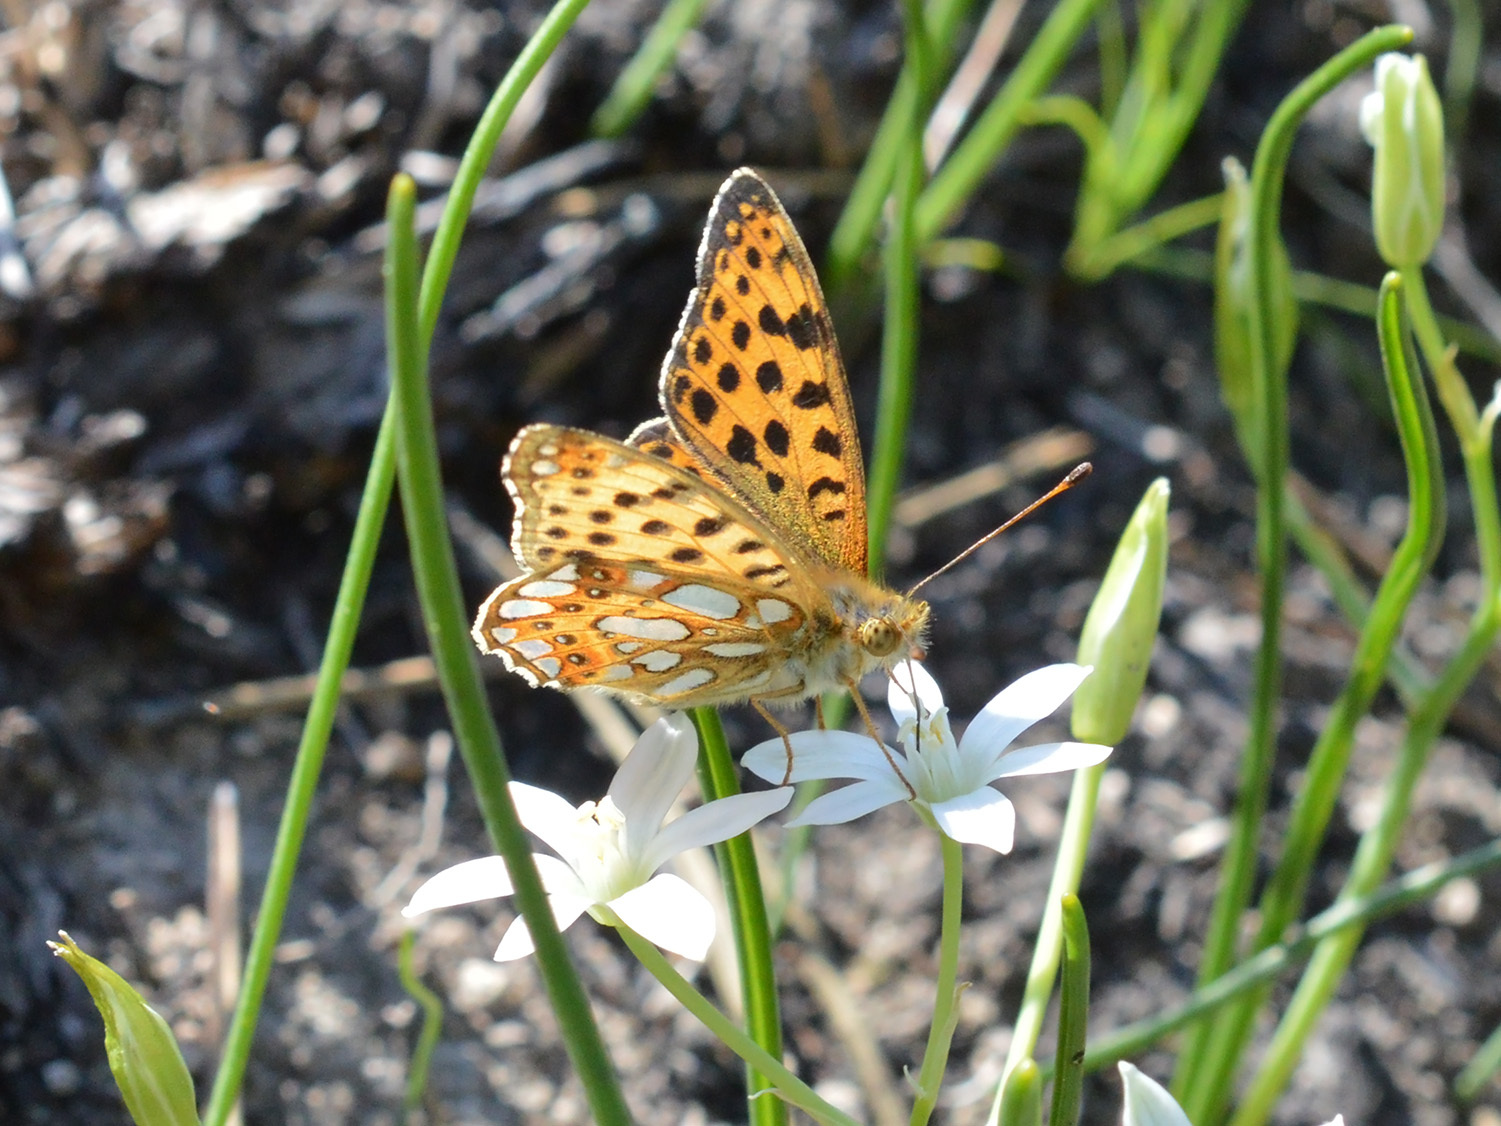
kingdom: Animalia
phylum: Arthropoda
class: Insecta
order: Lepidoptera
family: Nymphalidae
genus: Issoria
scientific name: Issoria lathonia
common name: Queen of spain fritillary
